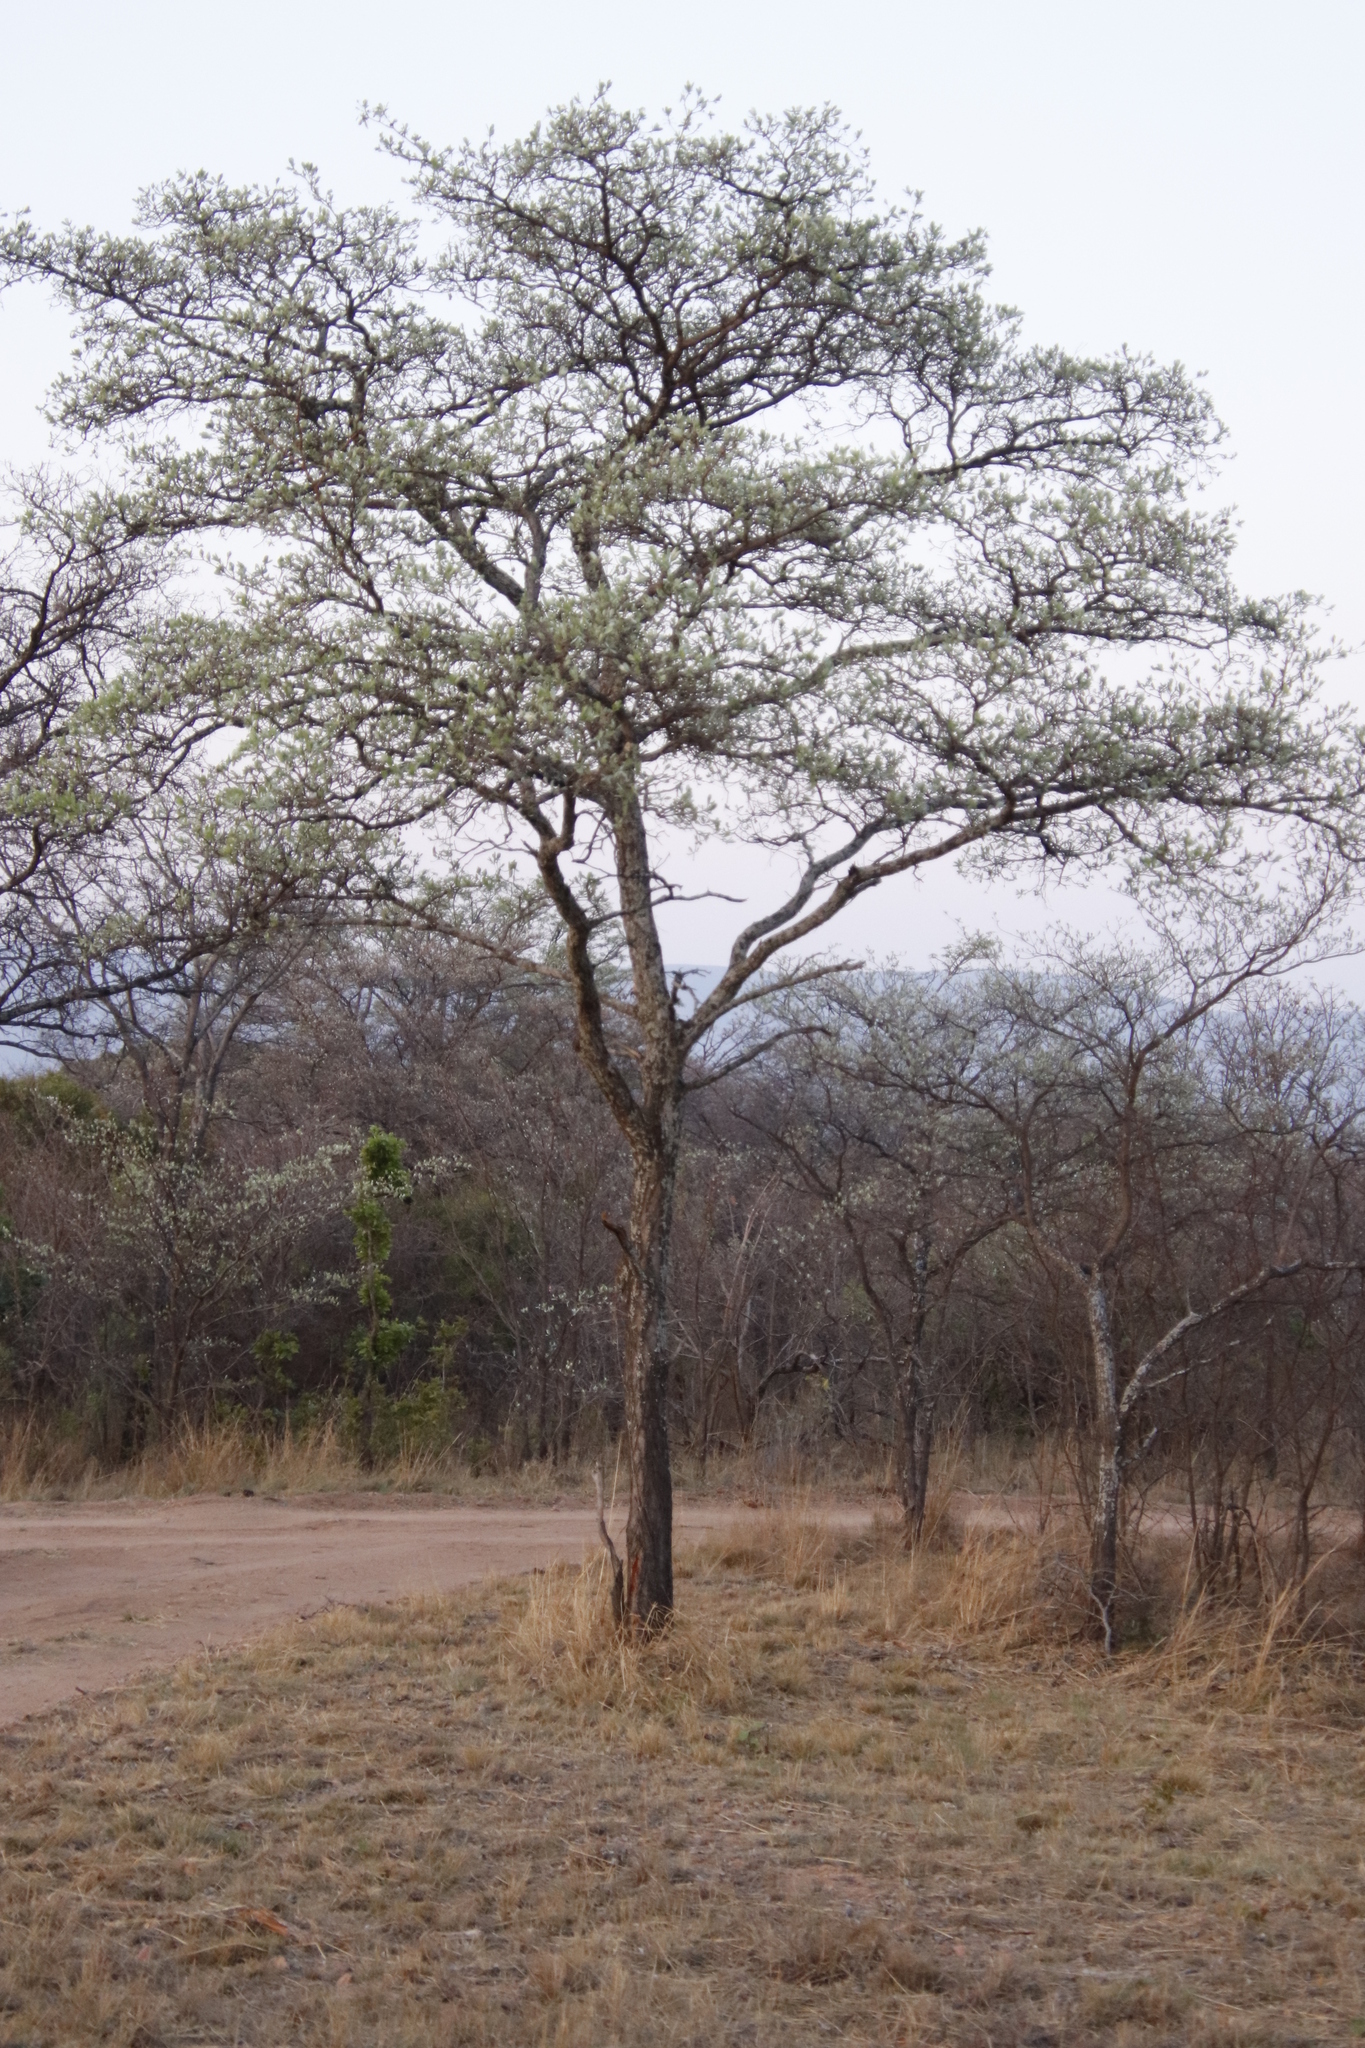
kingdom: Plantae
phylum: Tracheophyta
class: Magnoliopsida
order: Myrtales
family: Combretaceae
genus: Terminalia
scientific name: Terminalia sericea
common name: Clusterleaf
